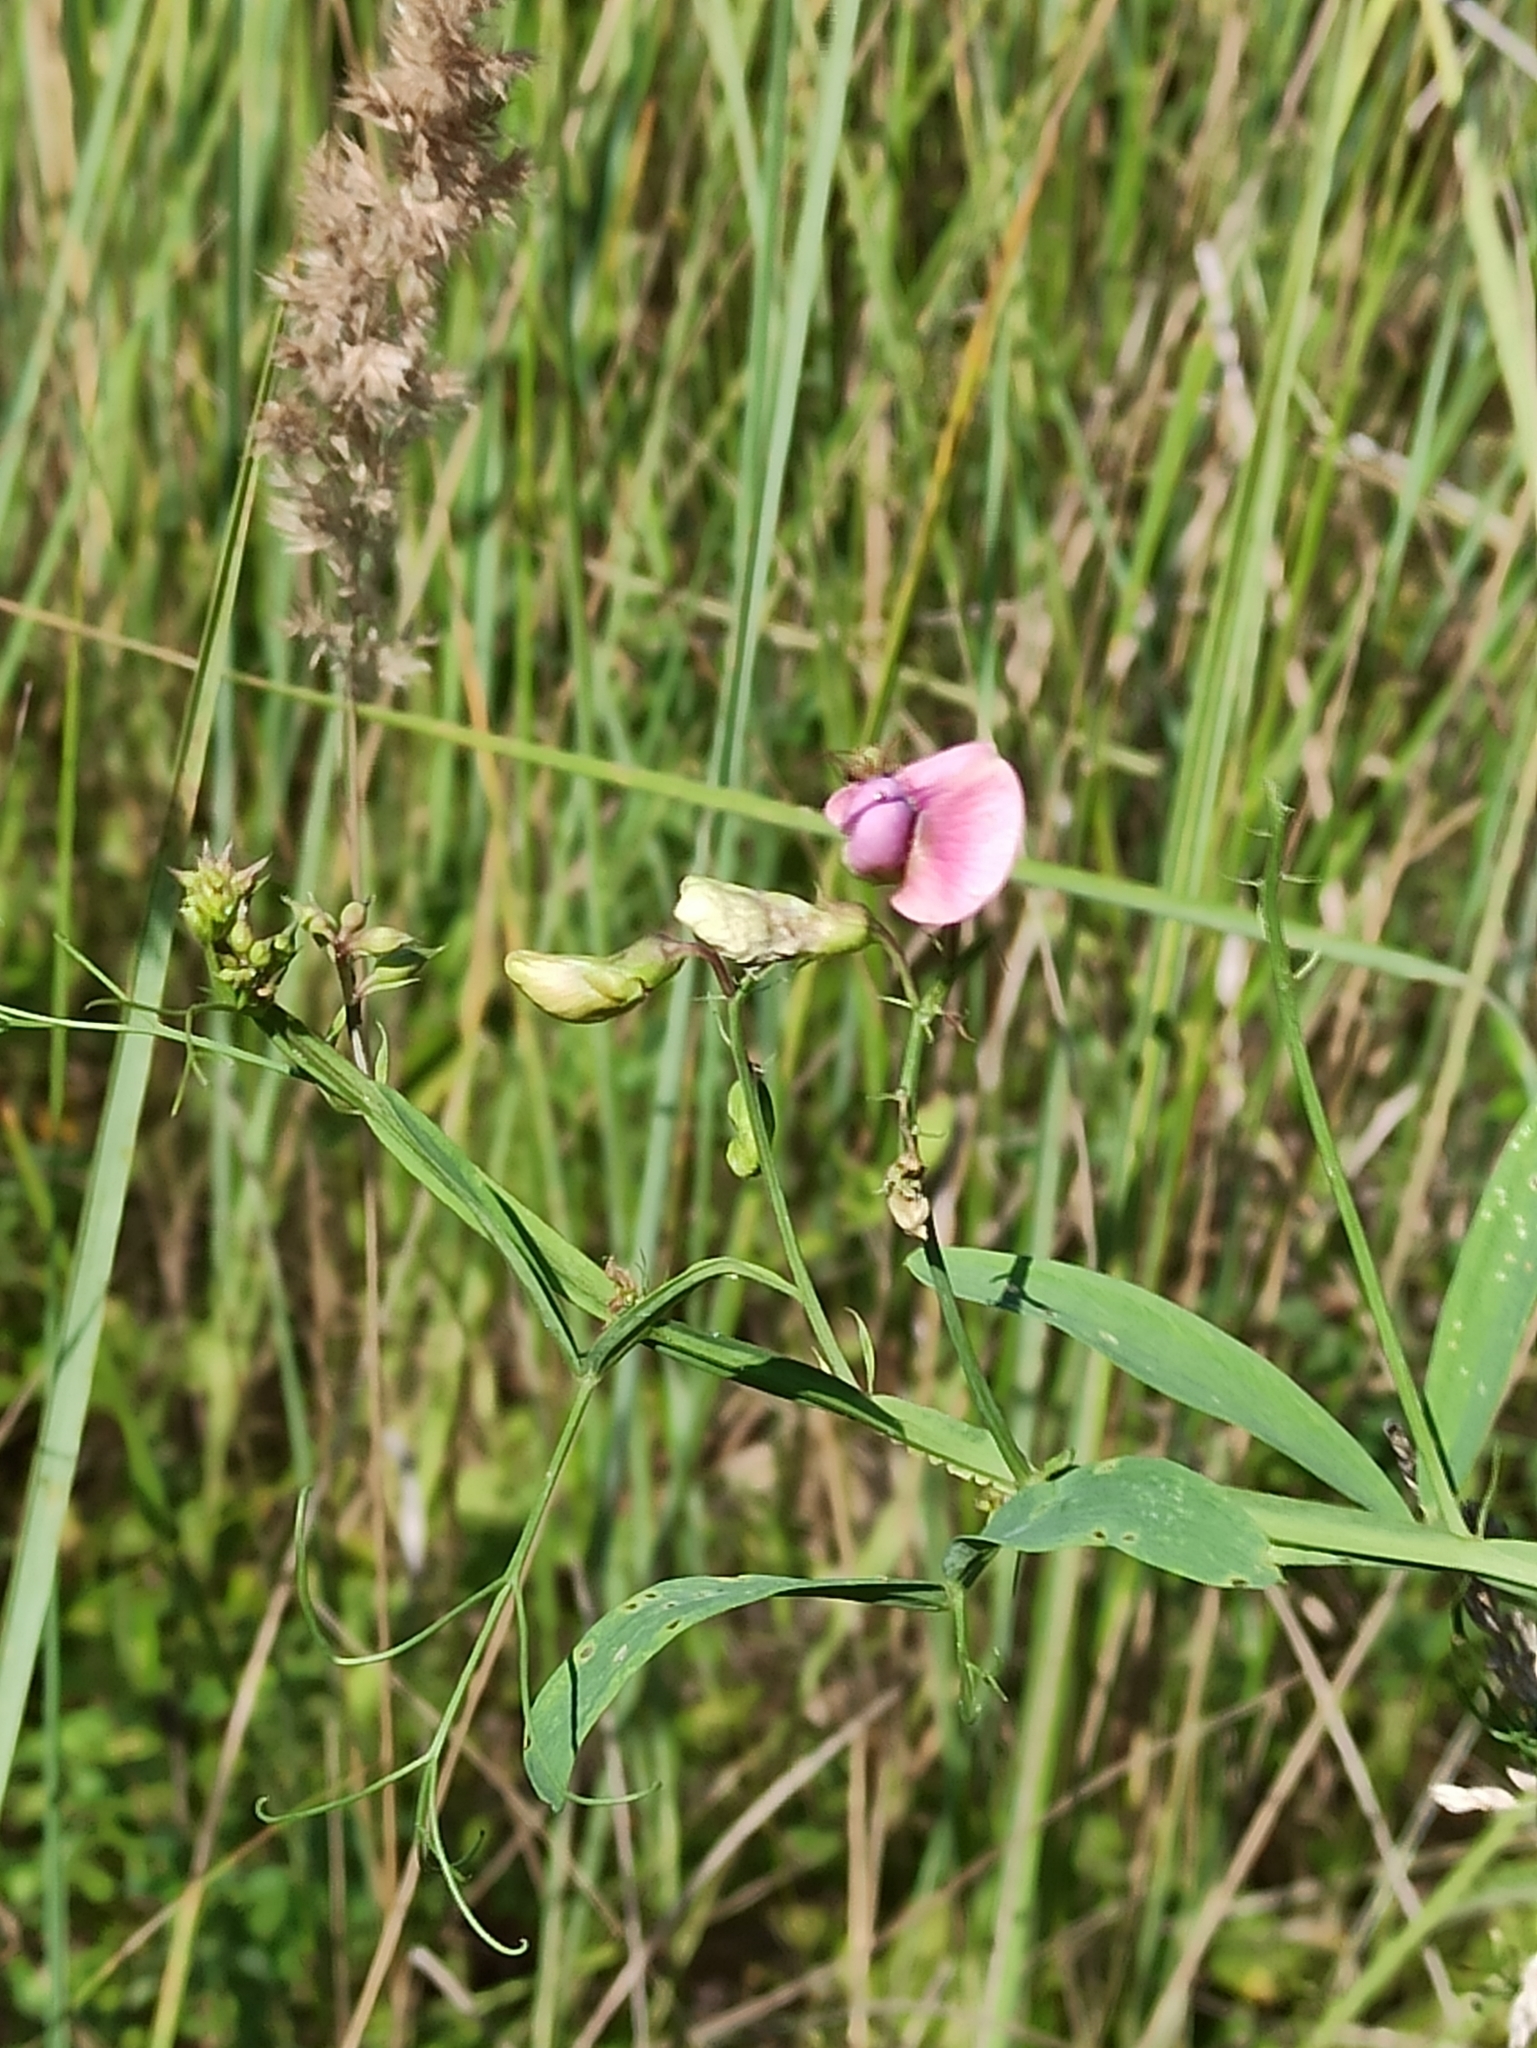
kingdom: Plantae
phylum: Tracheophyta
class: Magnoliopsida
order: Fabales
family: Fabaceae
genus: Lathyrus
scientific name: Lathyrus sylvestris
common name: Flat pea
